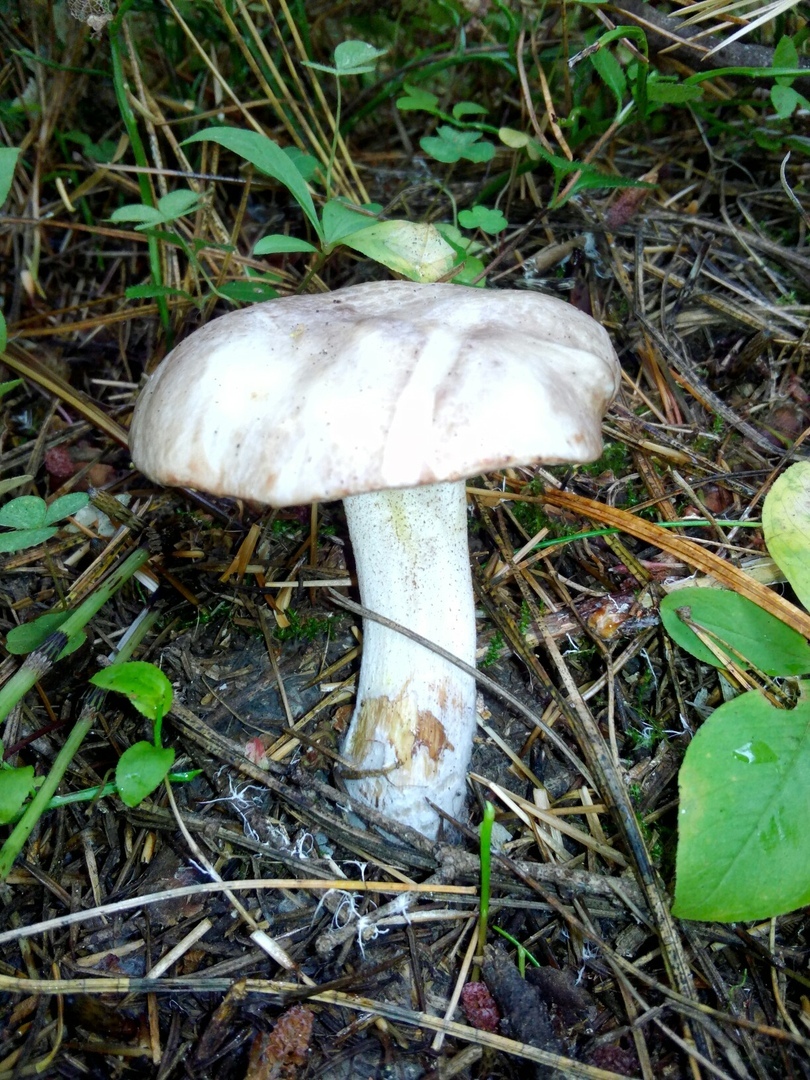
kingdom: Fungi
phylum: Basidiomycota
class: Agaricomycetes
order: Boletales
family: Suillaceae
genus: Suillus
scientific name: Suillus placidus
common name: Slippery white bolete
